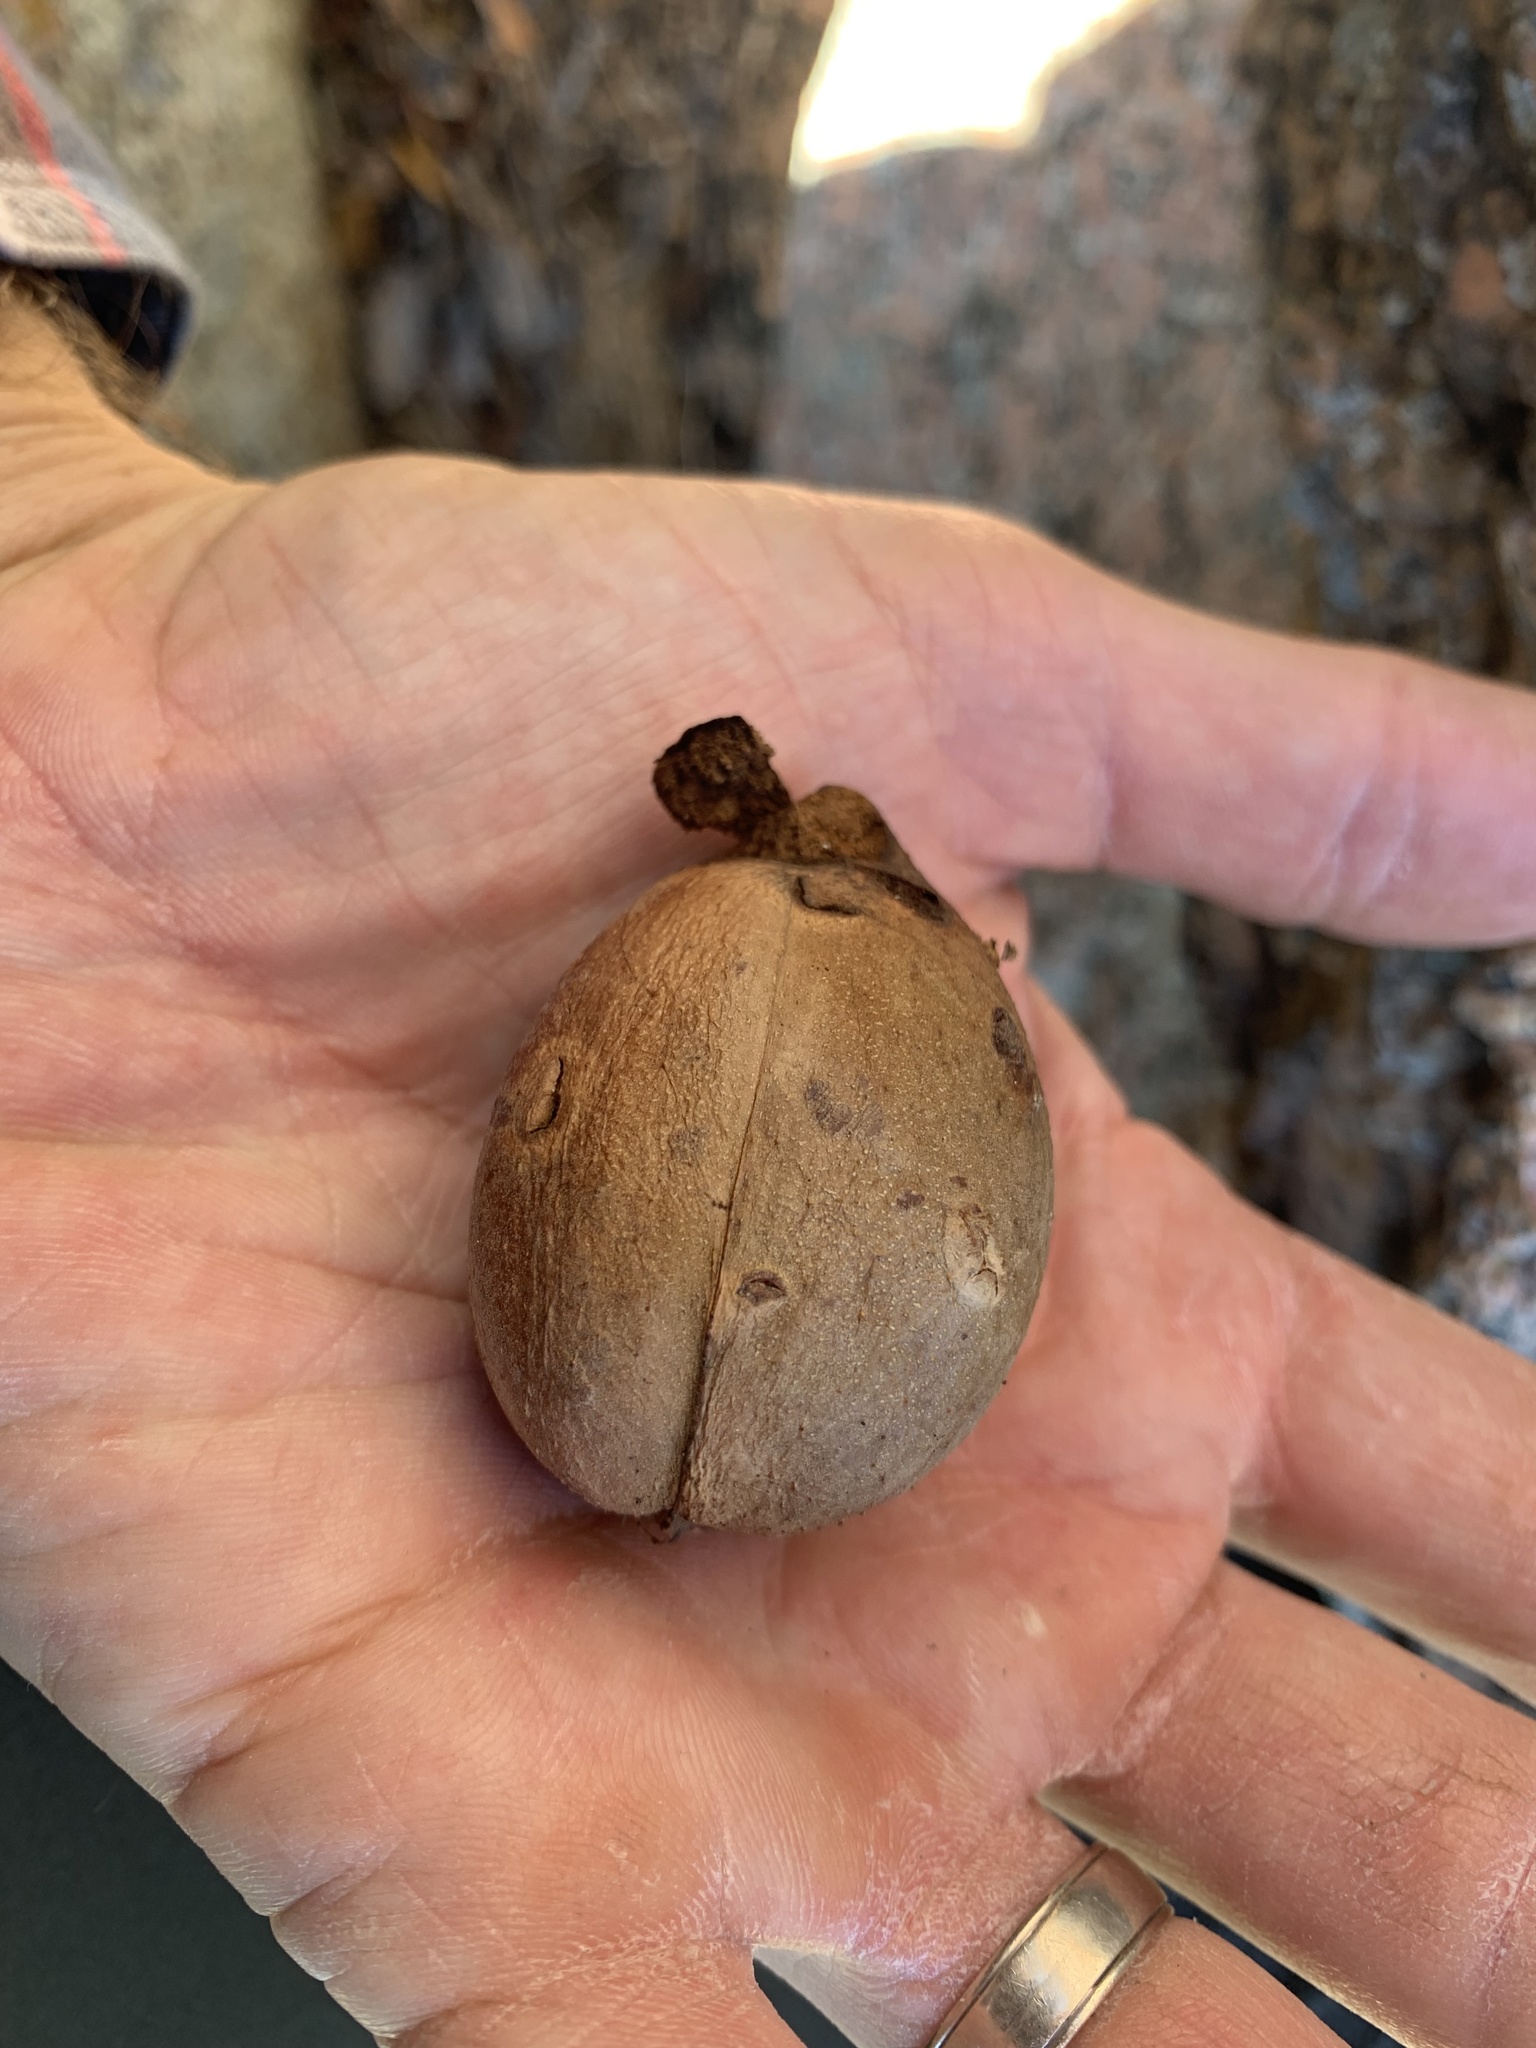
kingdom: Plantae
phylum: Tracheophyta
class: Magnoliopsida
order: Fagales
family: Juglandaceae
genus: Carya
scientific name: Carya texana
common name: Black hickory
